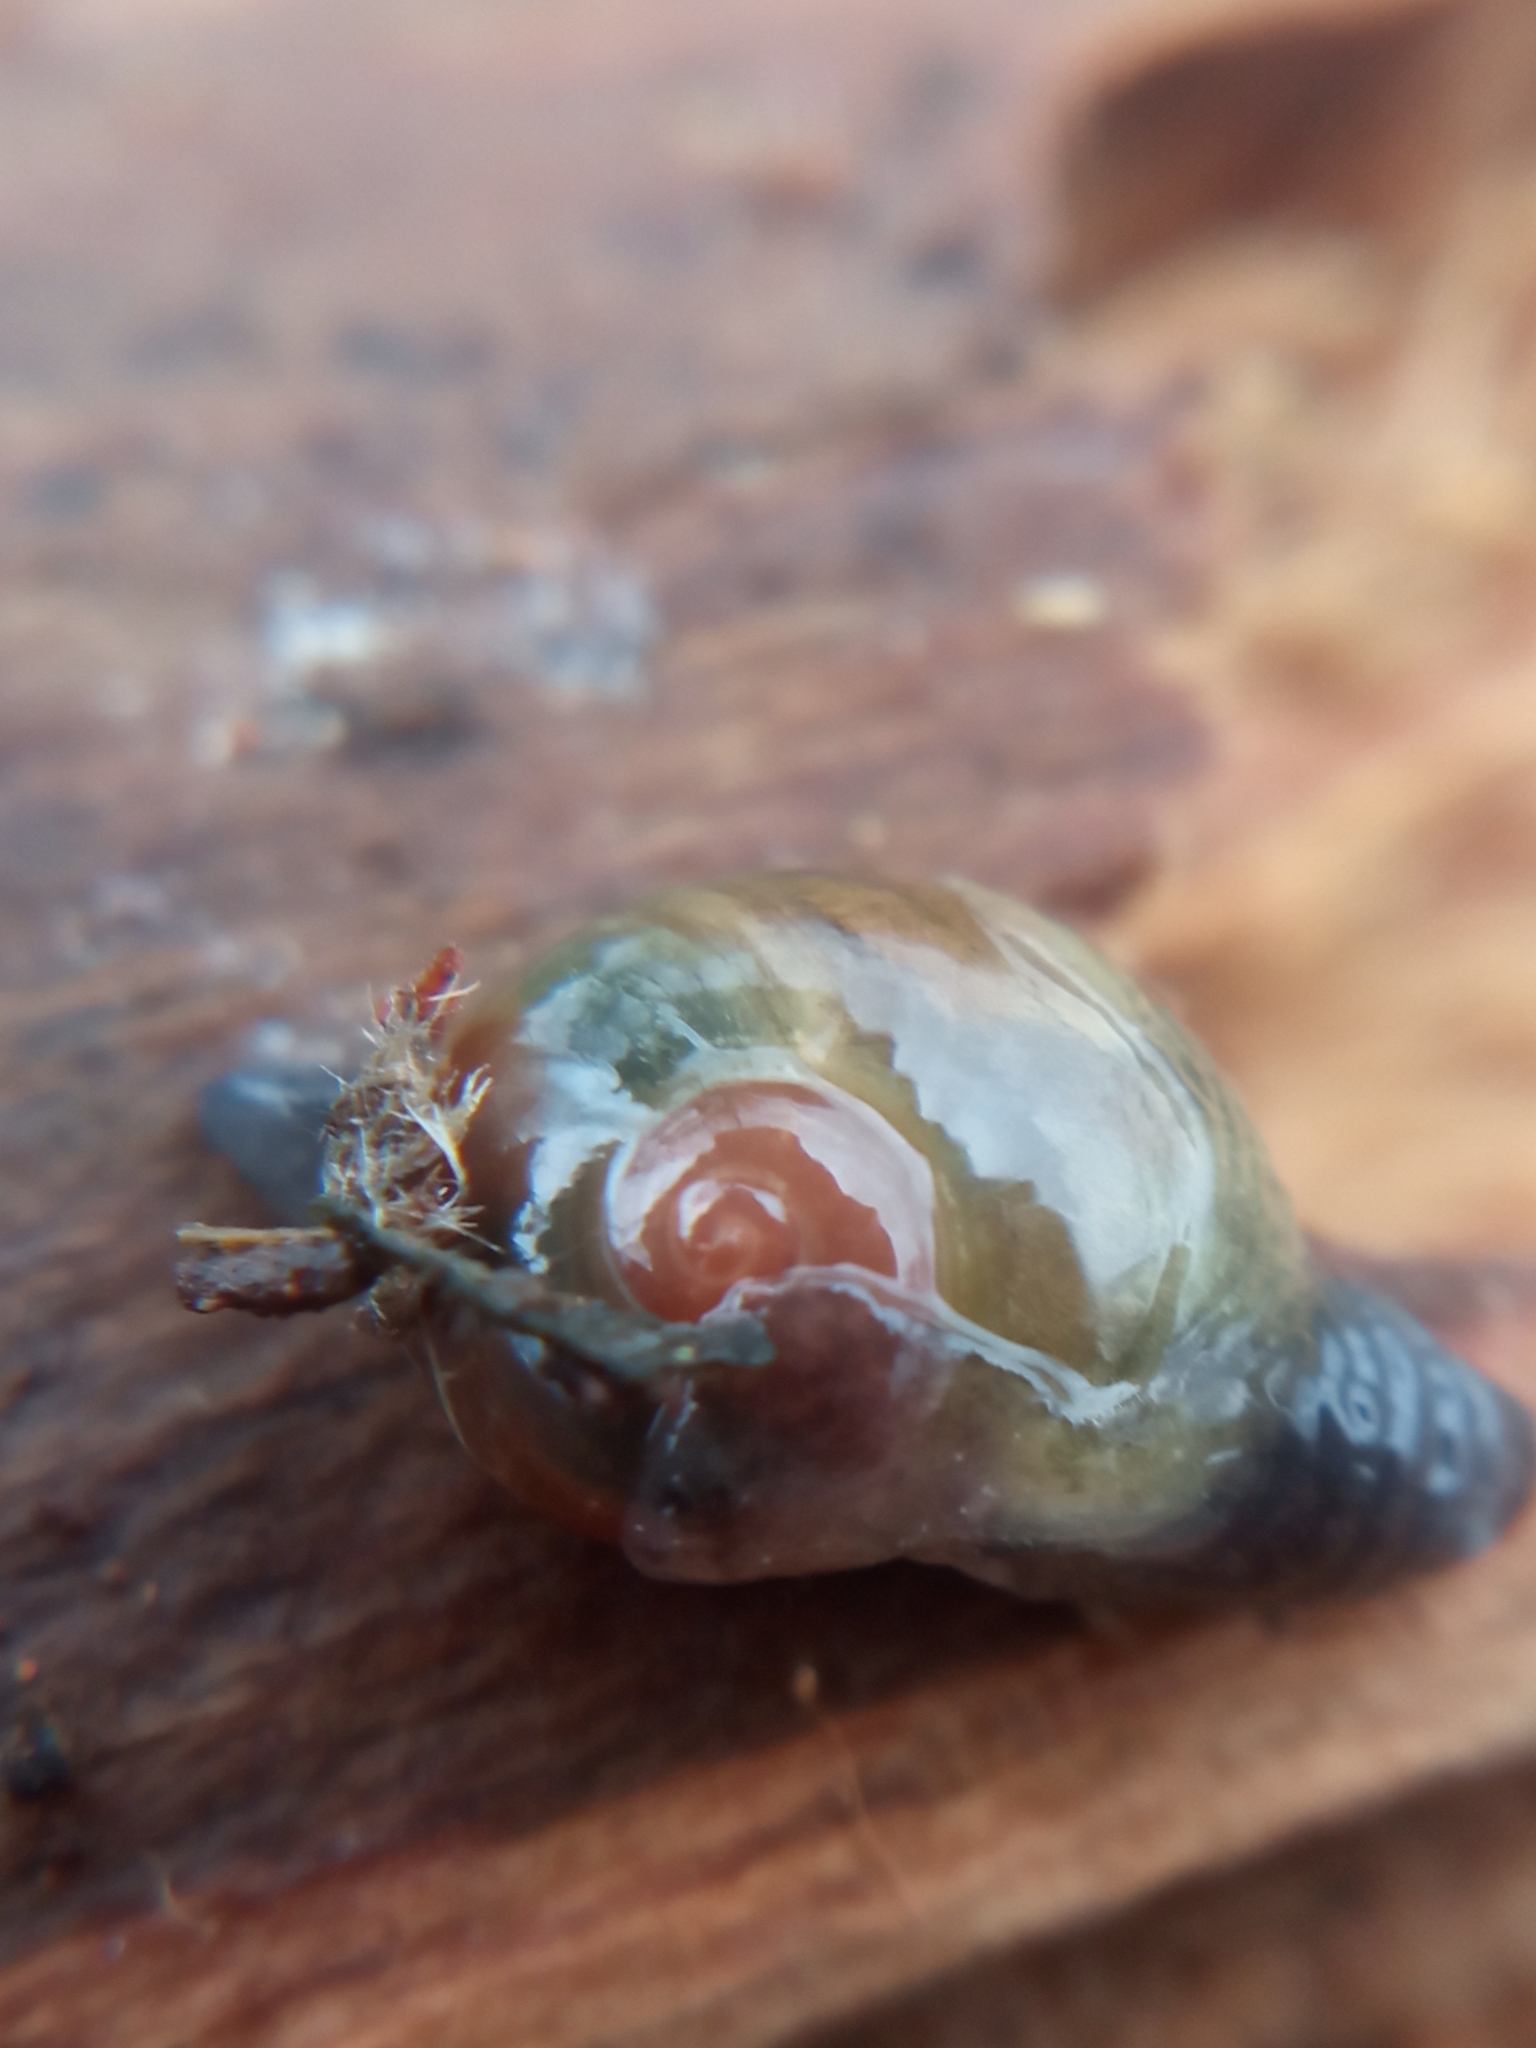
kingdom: Animalia
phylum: Mollusca
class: Gastropoda
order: Stylommatophora
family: Vitrinidae
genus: Vitrina
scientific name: Vitrina pellucida
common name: Pellucid glass snail
